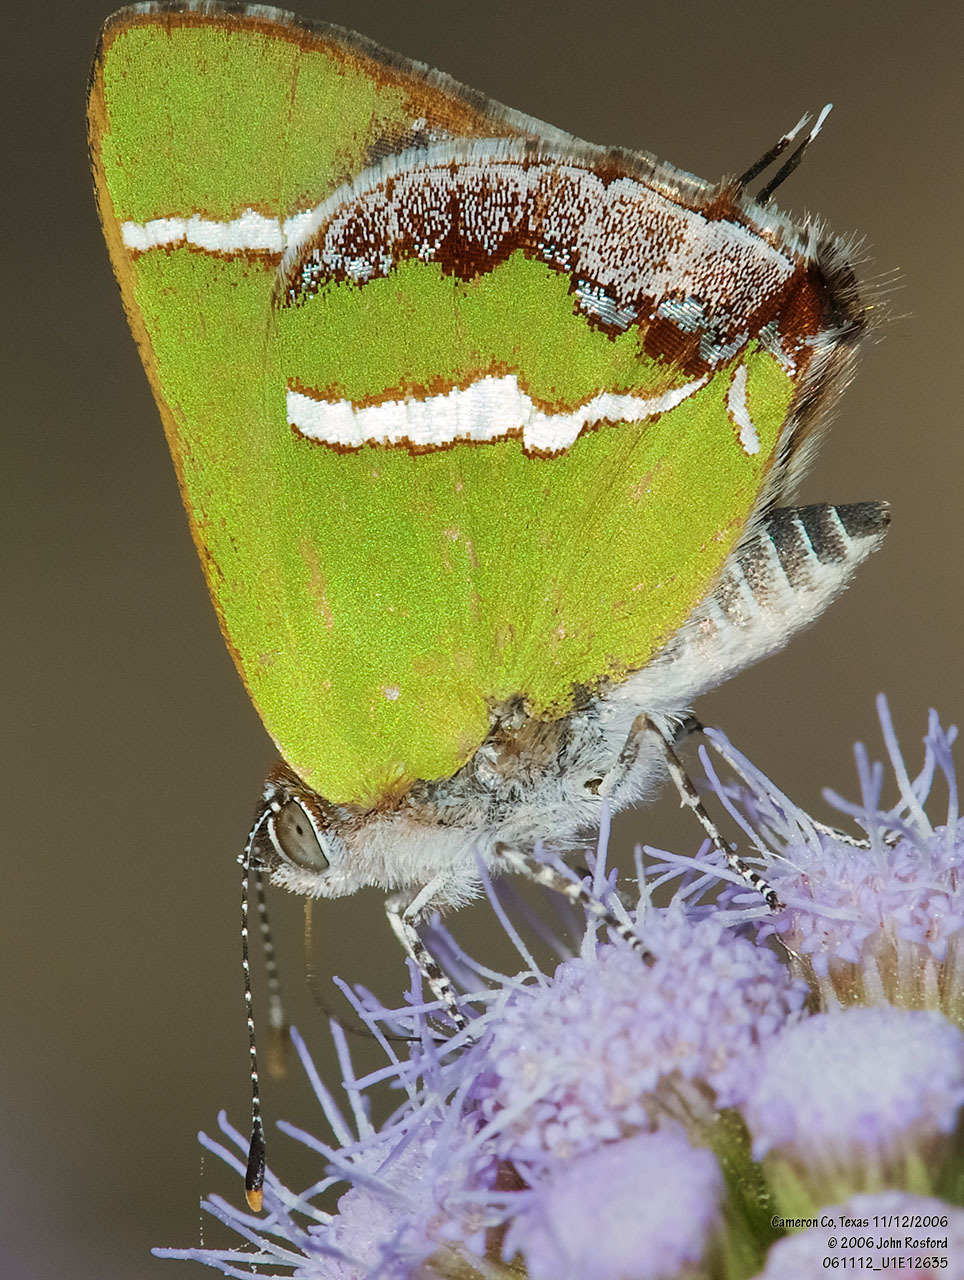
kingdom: Animalia
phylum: Arthropoda
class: Insecta
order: Lepidoptera
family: Lycaenidae
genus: Chlorostrymon
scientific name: Chlorostrymon simaethis
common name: Silver-banded hairstreak
